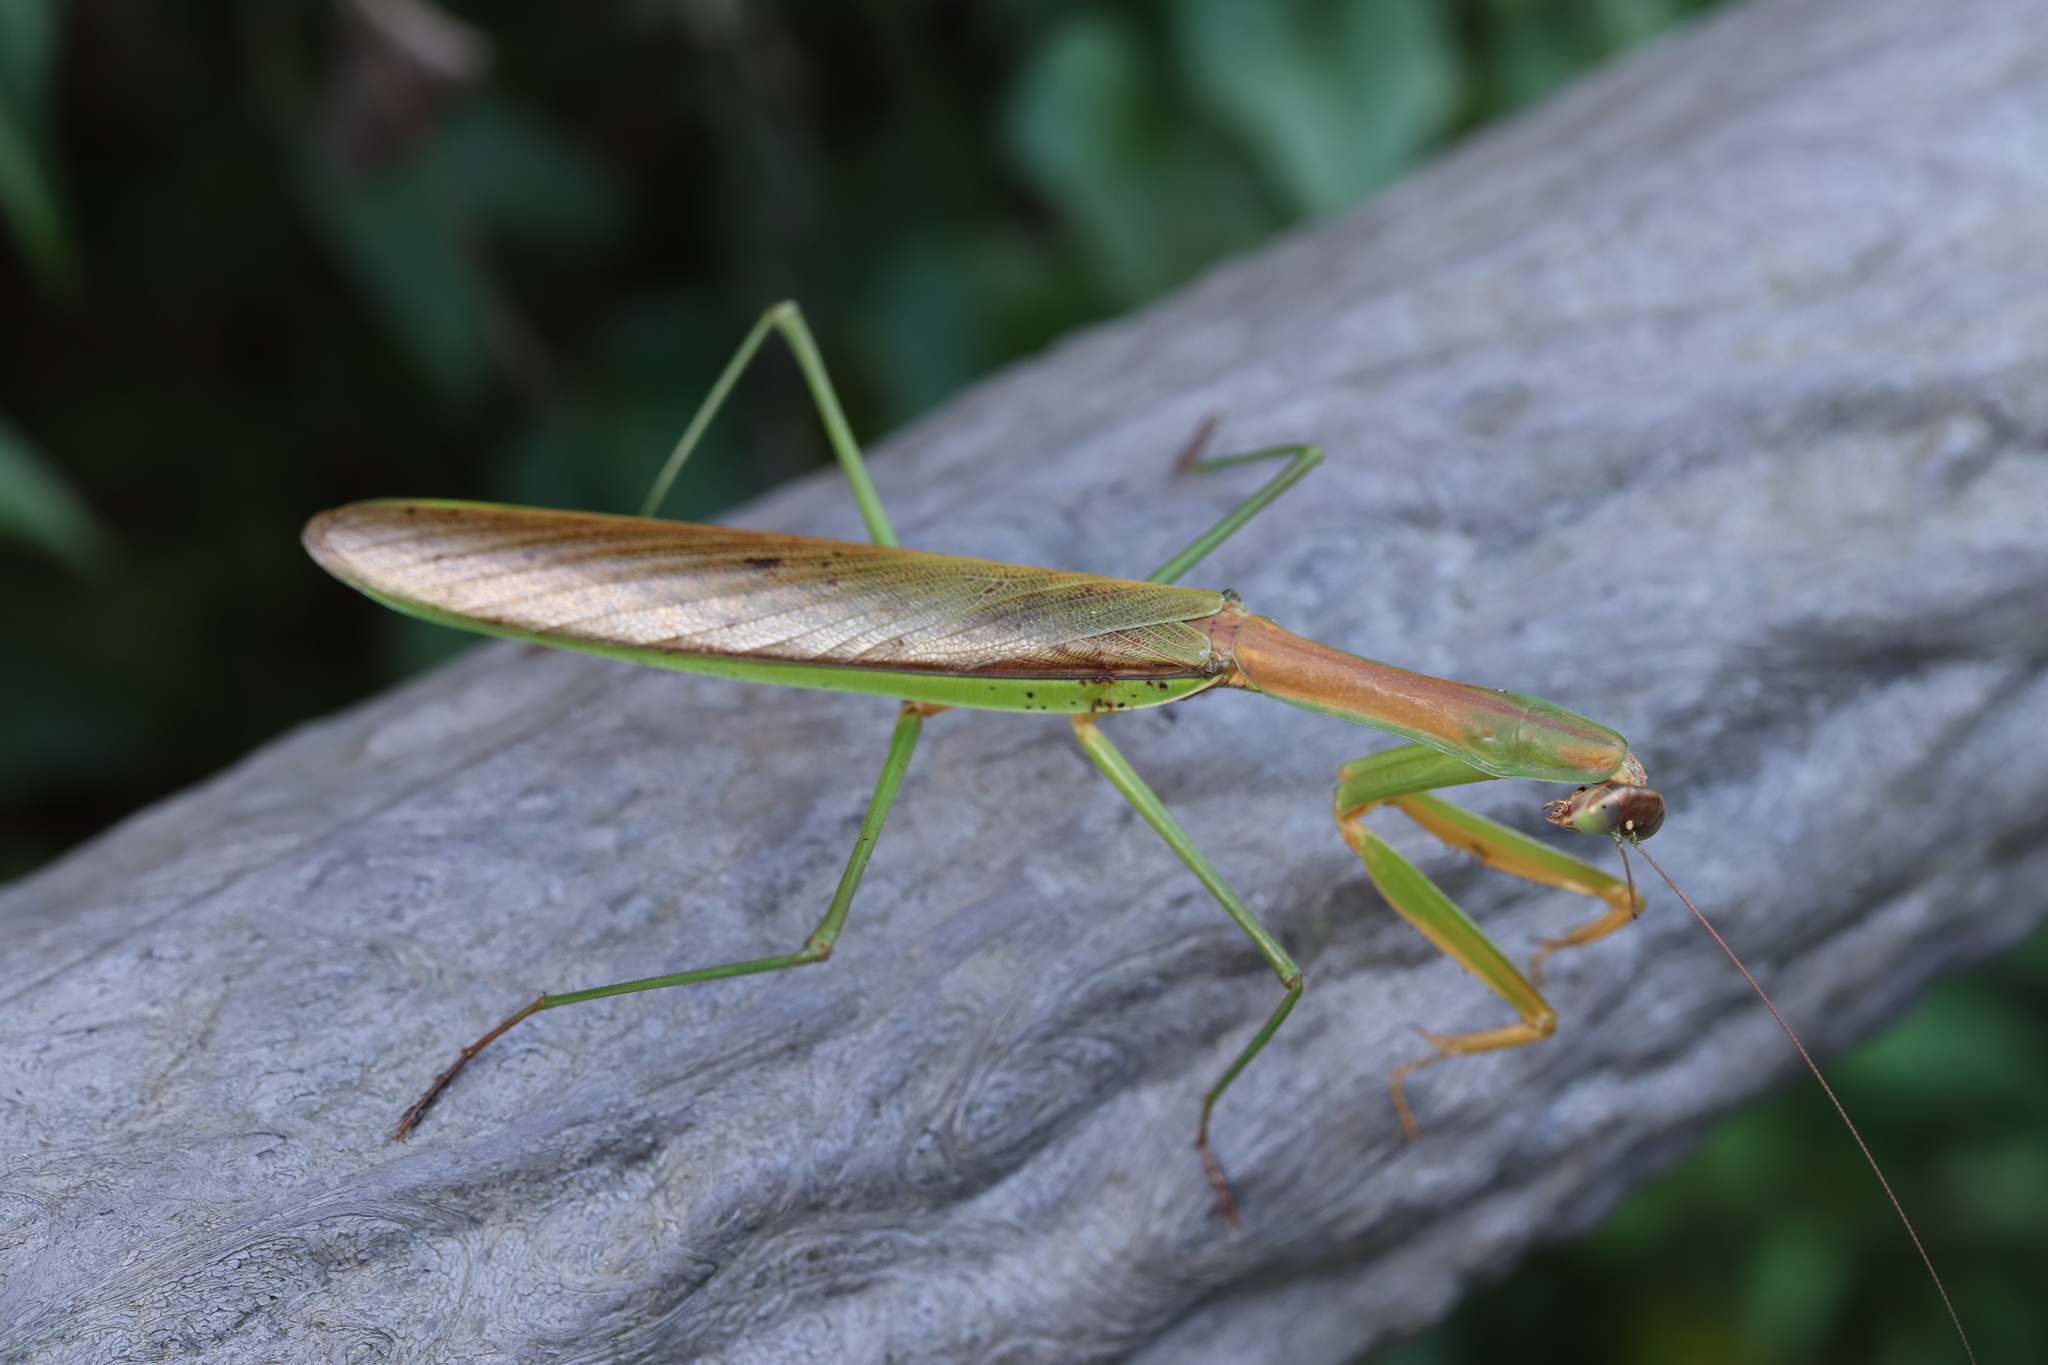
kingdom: Animalia
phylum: Arthropoda
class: Insecta
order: Mantodea
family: Mantidae
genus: Tenodera
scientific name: Tenodera sinensis
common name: Chinese mantis
